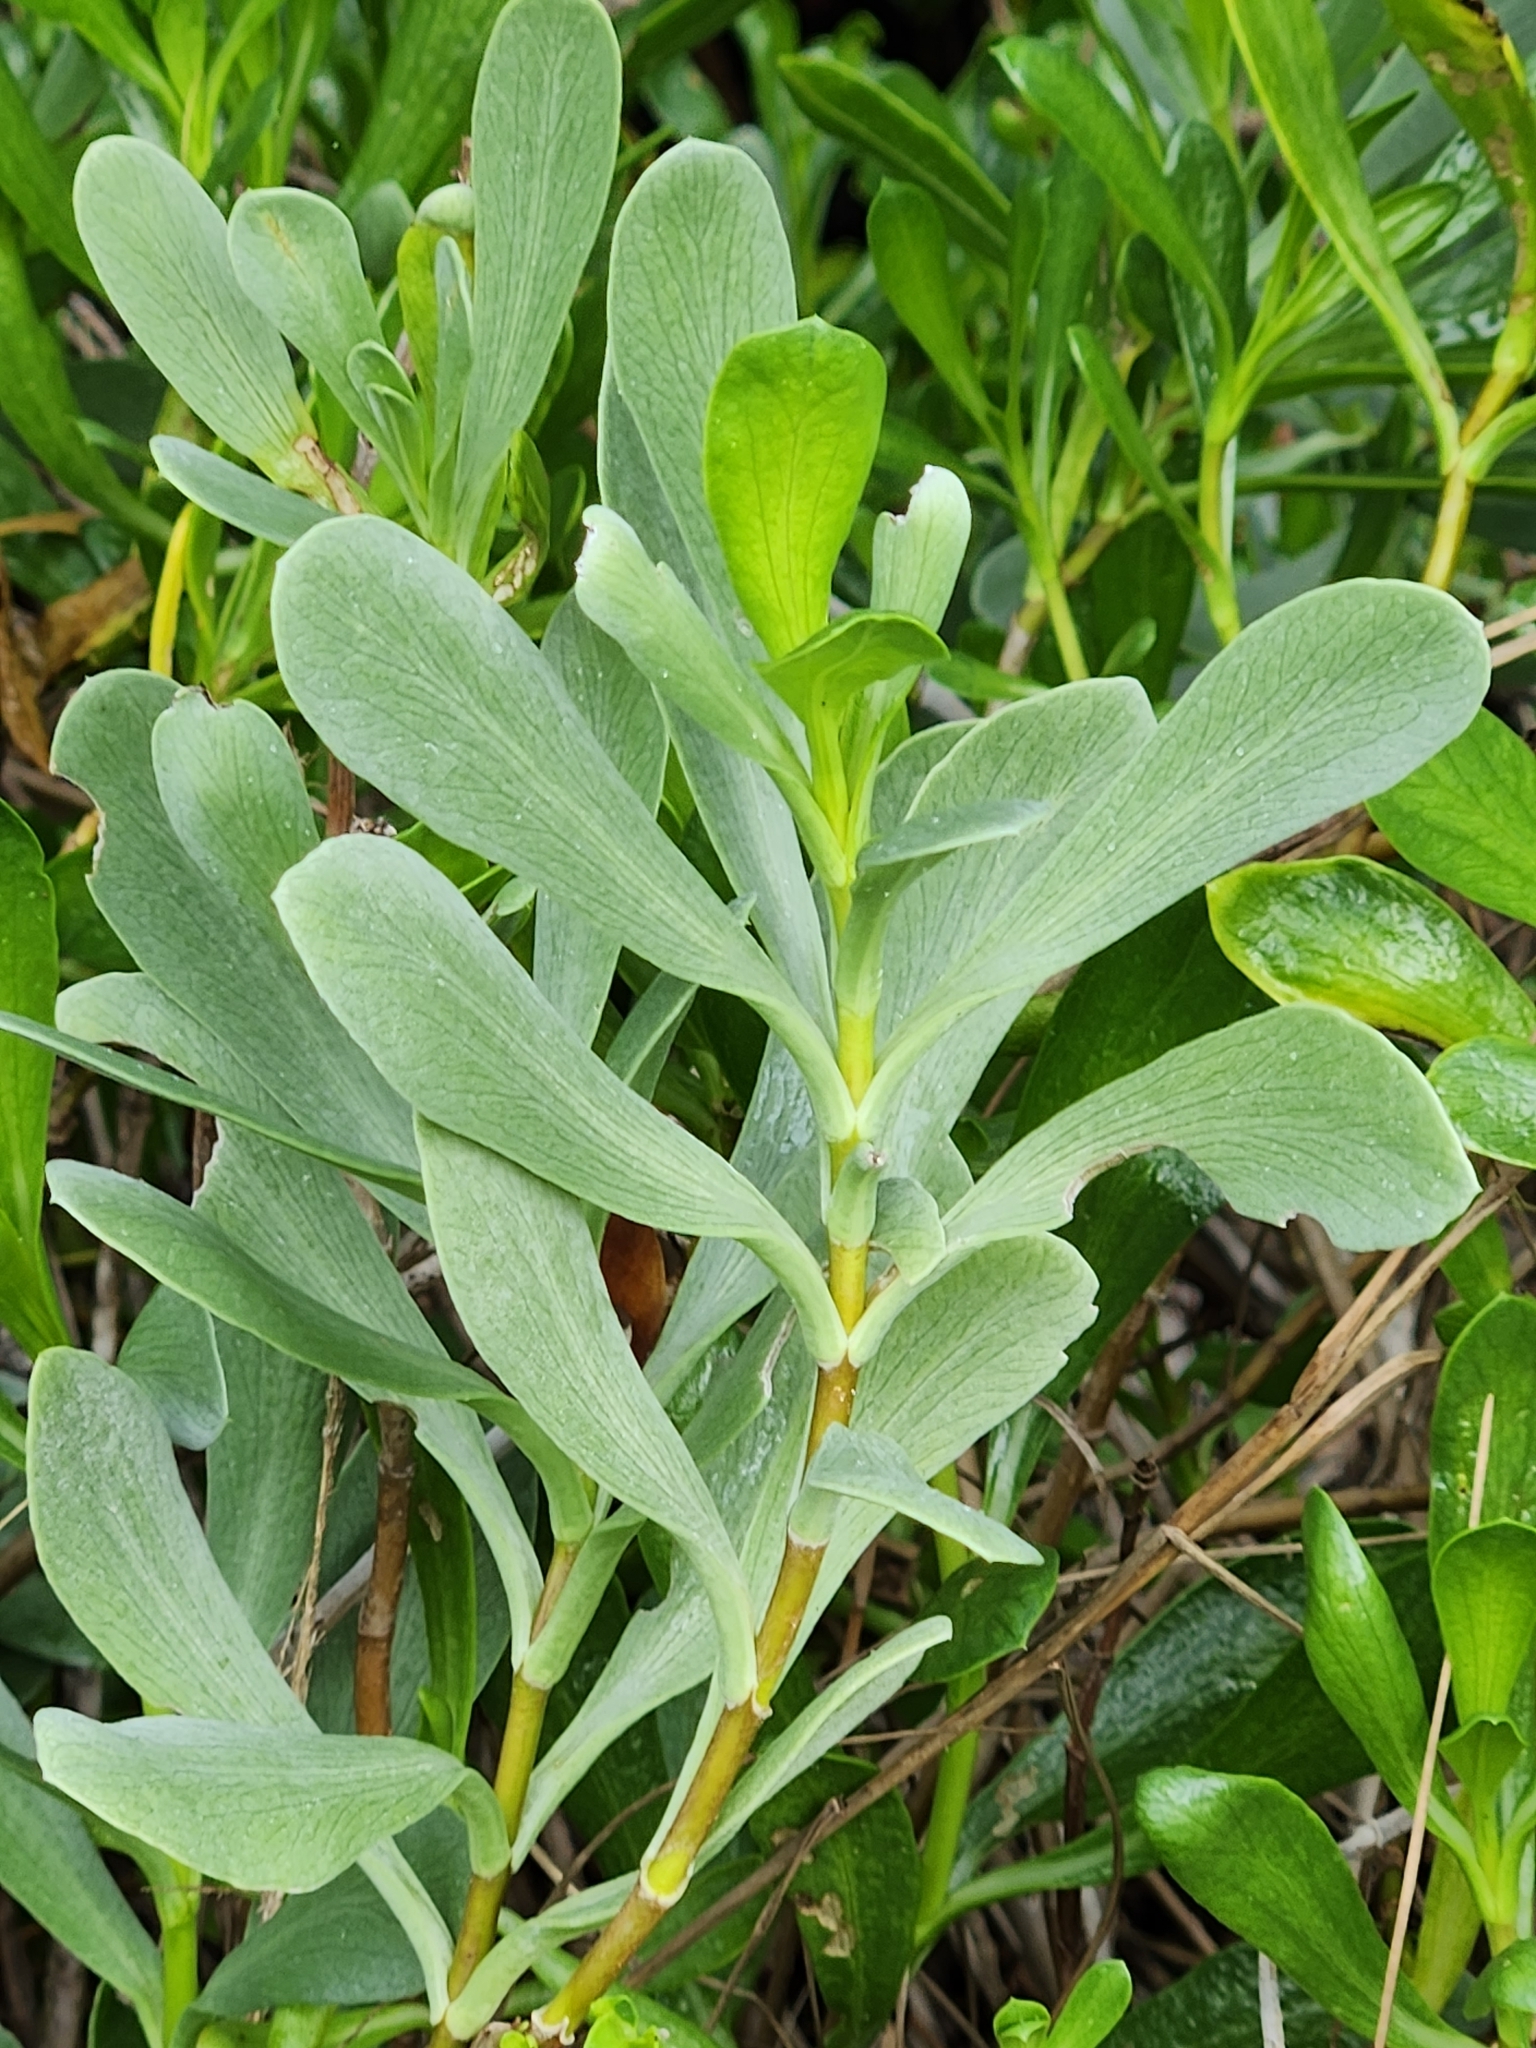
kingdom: Plantae
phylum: Tracheophyta
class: Magnoliopsida
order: Asterales
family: Asteraceae
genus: Borrichia
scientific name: Borrichia frutescens
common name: Sea oxeye
